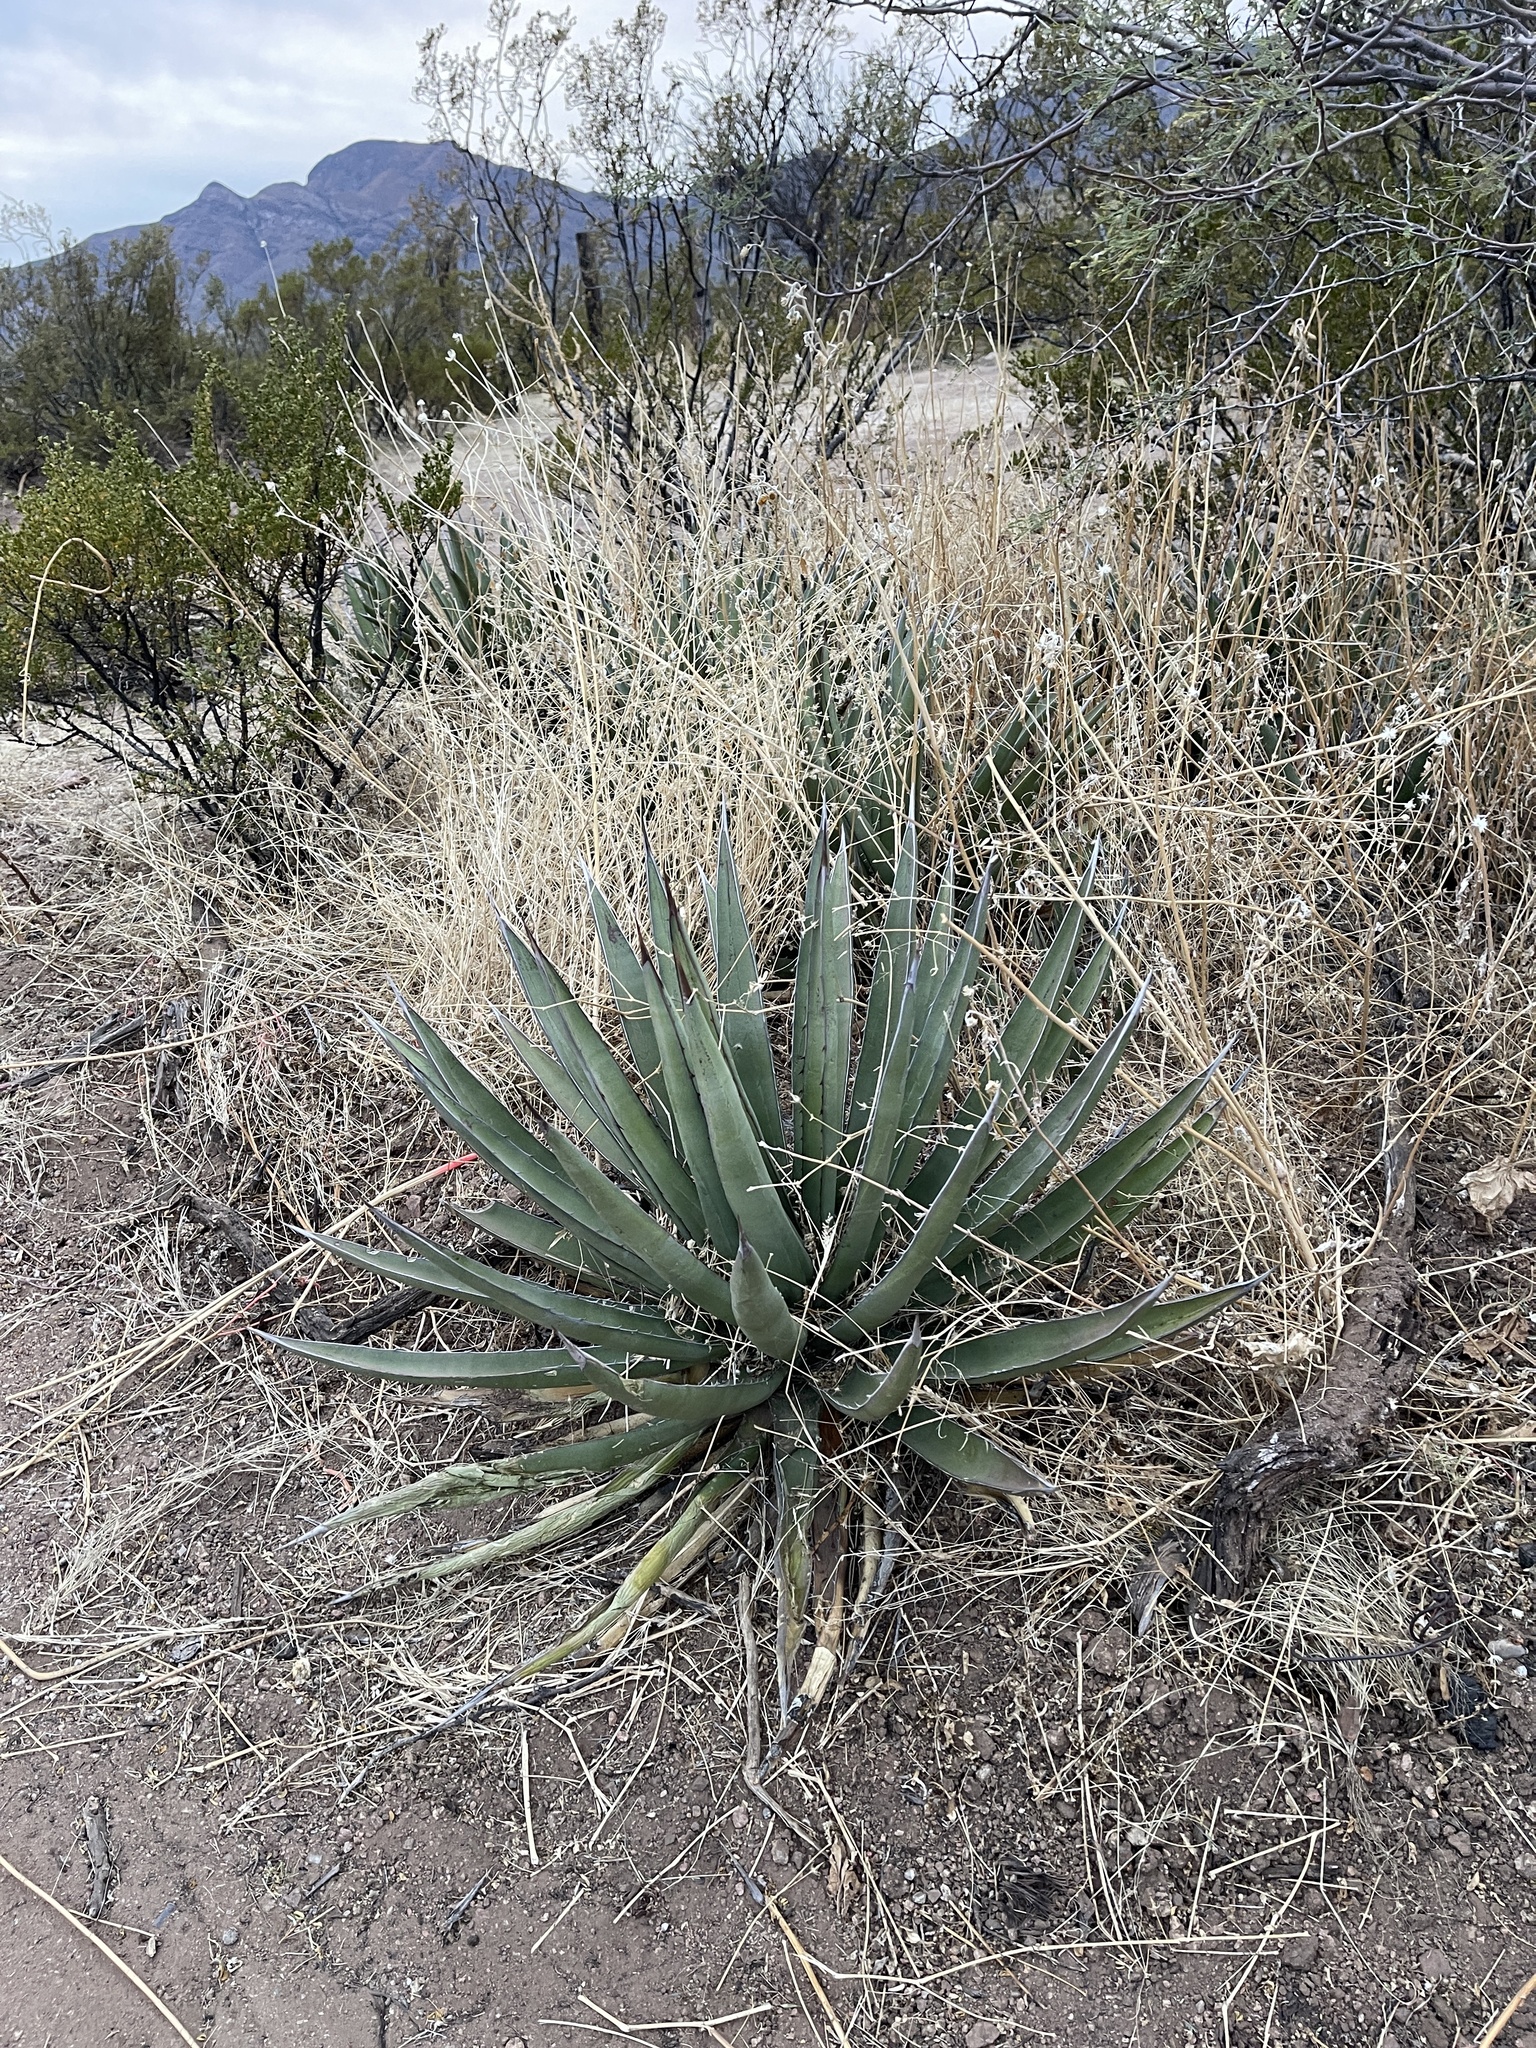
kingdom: Plantae
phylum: Tracheophyta
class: Liliopsida
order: Asparagales
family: Asparagaceae
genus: Agave
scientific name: Agave lechuguilla
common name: Lecheguilla agave
